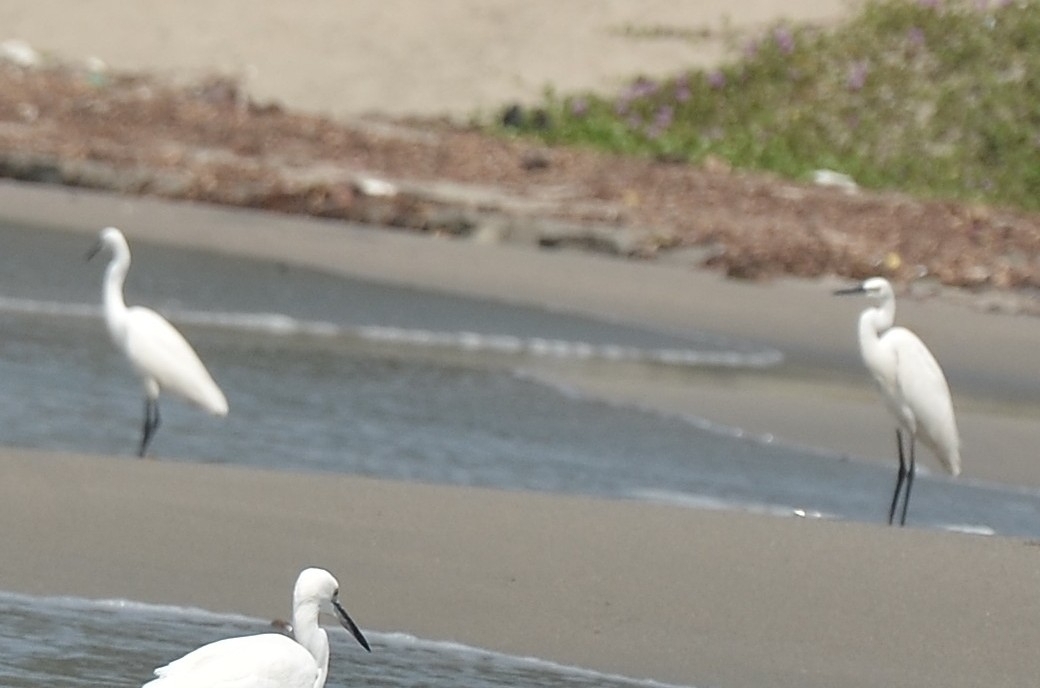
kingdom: Animalia
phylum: Chordata
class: Aves
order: Pelecaniformes
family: Ardeidae
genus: Egretta
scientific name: Egretta garzetta
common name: Little egret
